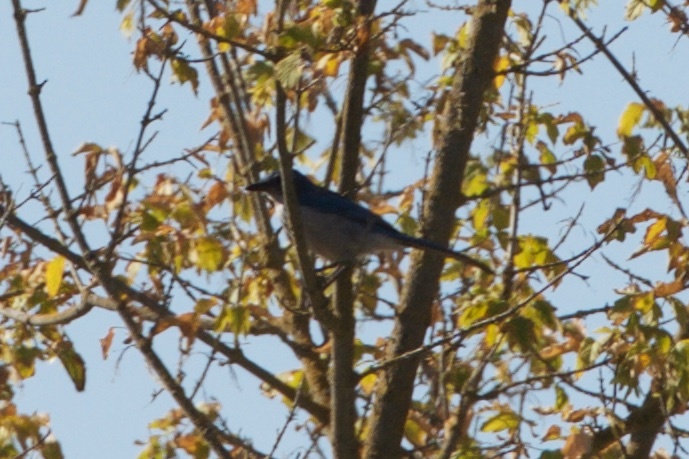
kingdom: Animalia
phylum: Chordata
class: Aves
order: Passeriformes
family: Corvidae
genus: Aphelocoma
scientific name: Aphelocoma californica
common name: California scrub-jay
